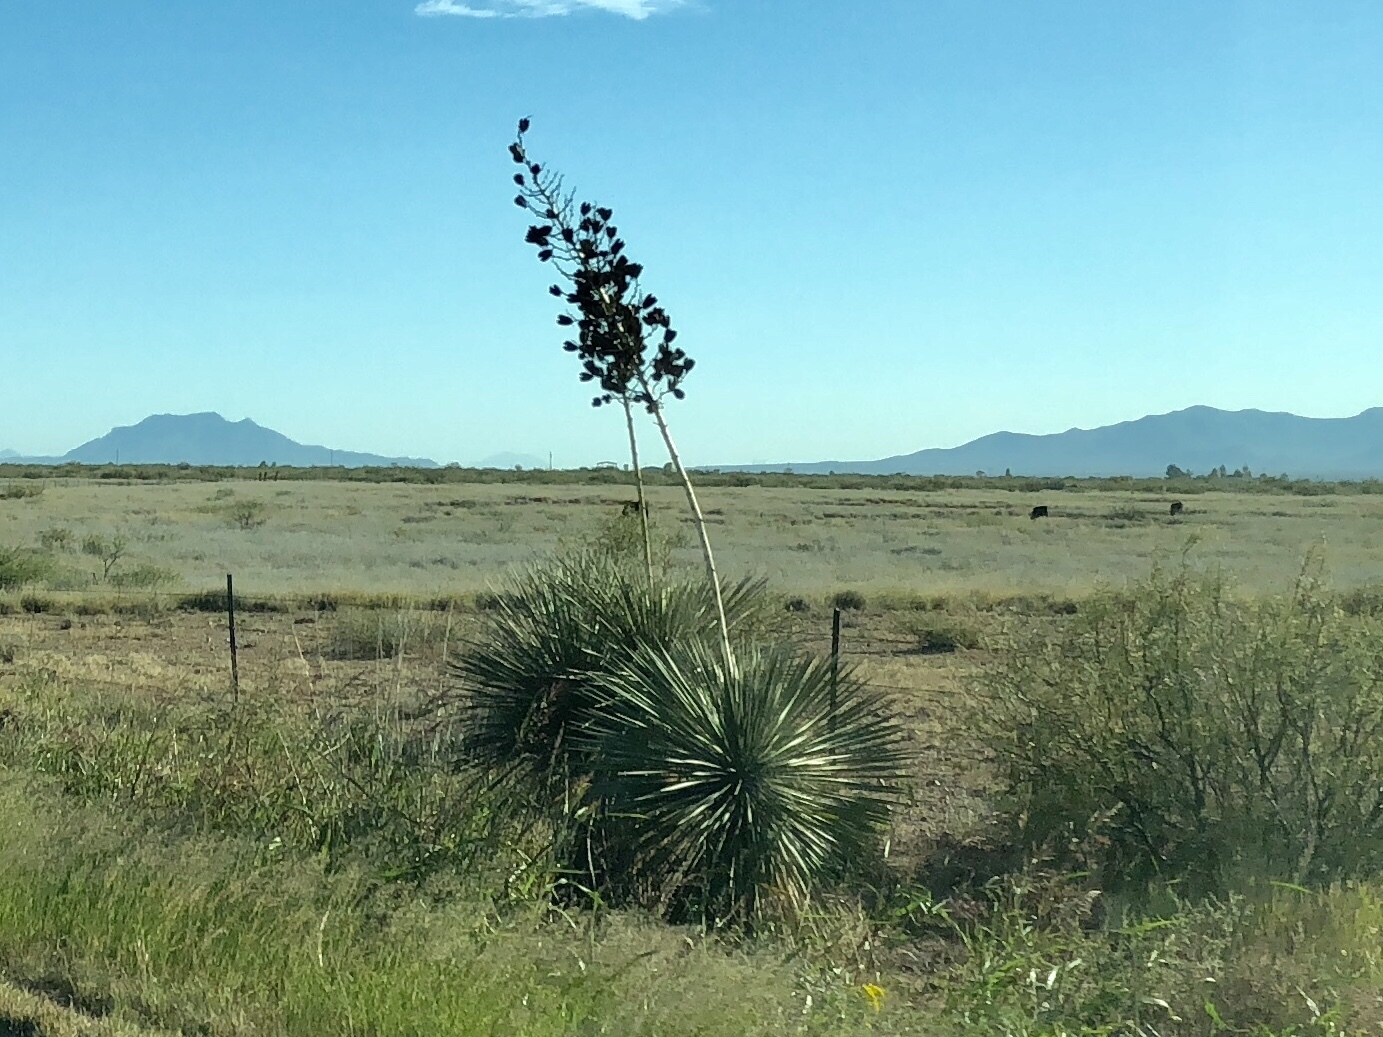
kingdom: Plantae
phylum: Tracheophyta
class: Liliopsida
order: Asparagales
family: Asparagaceae
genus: Yucca
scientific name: Yucca elata
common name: Palmella
